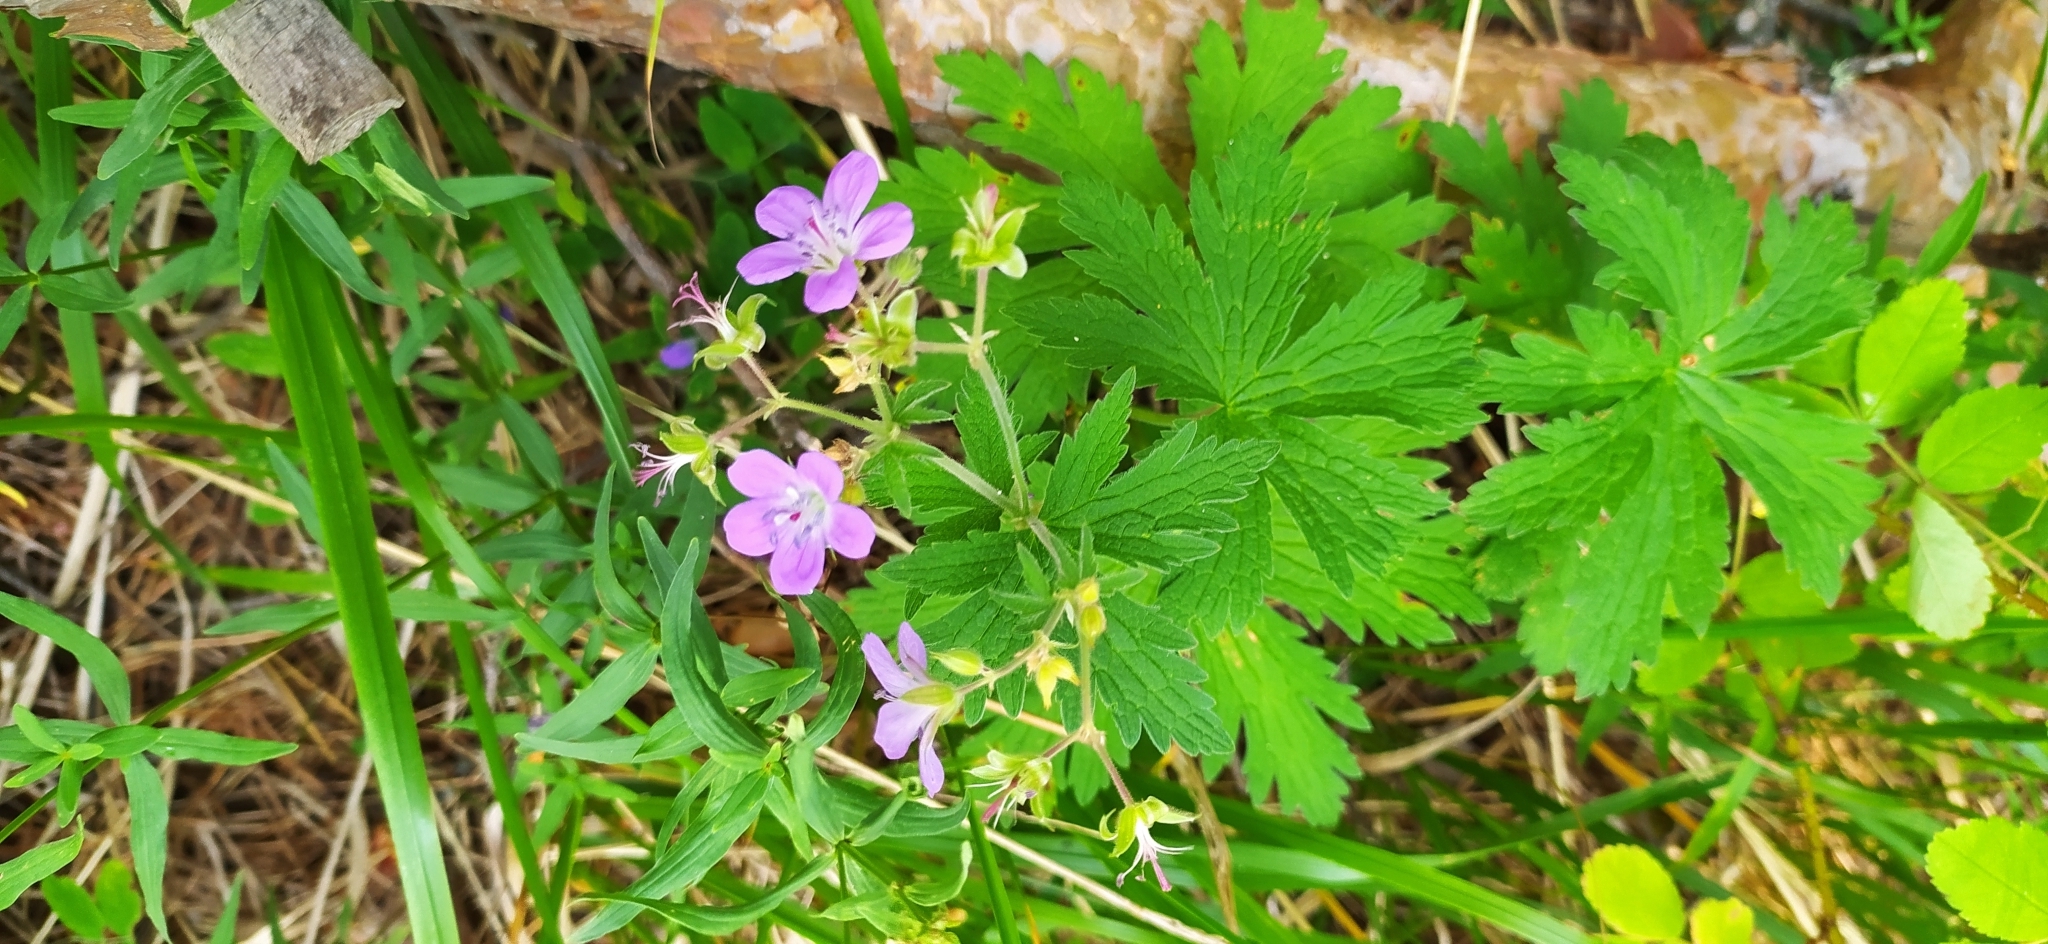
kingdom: Plantae
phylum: Tracheophyta
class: Magnoliopsida
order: Geraniales
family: Geraniaceae
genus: Geranium
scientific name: Geranium sylvaticum
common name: Wood crane's-bill
